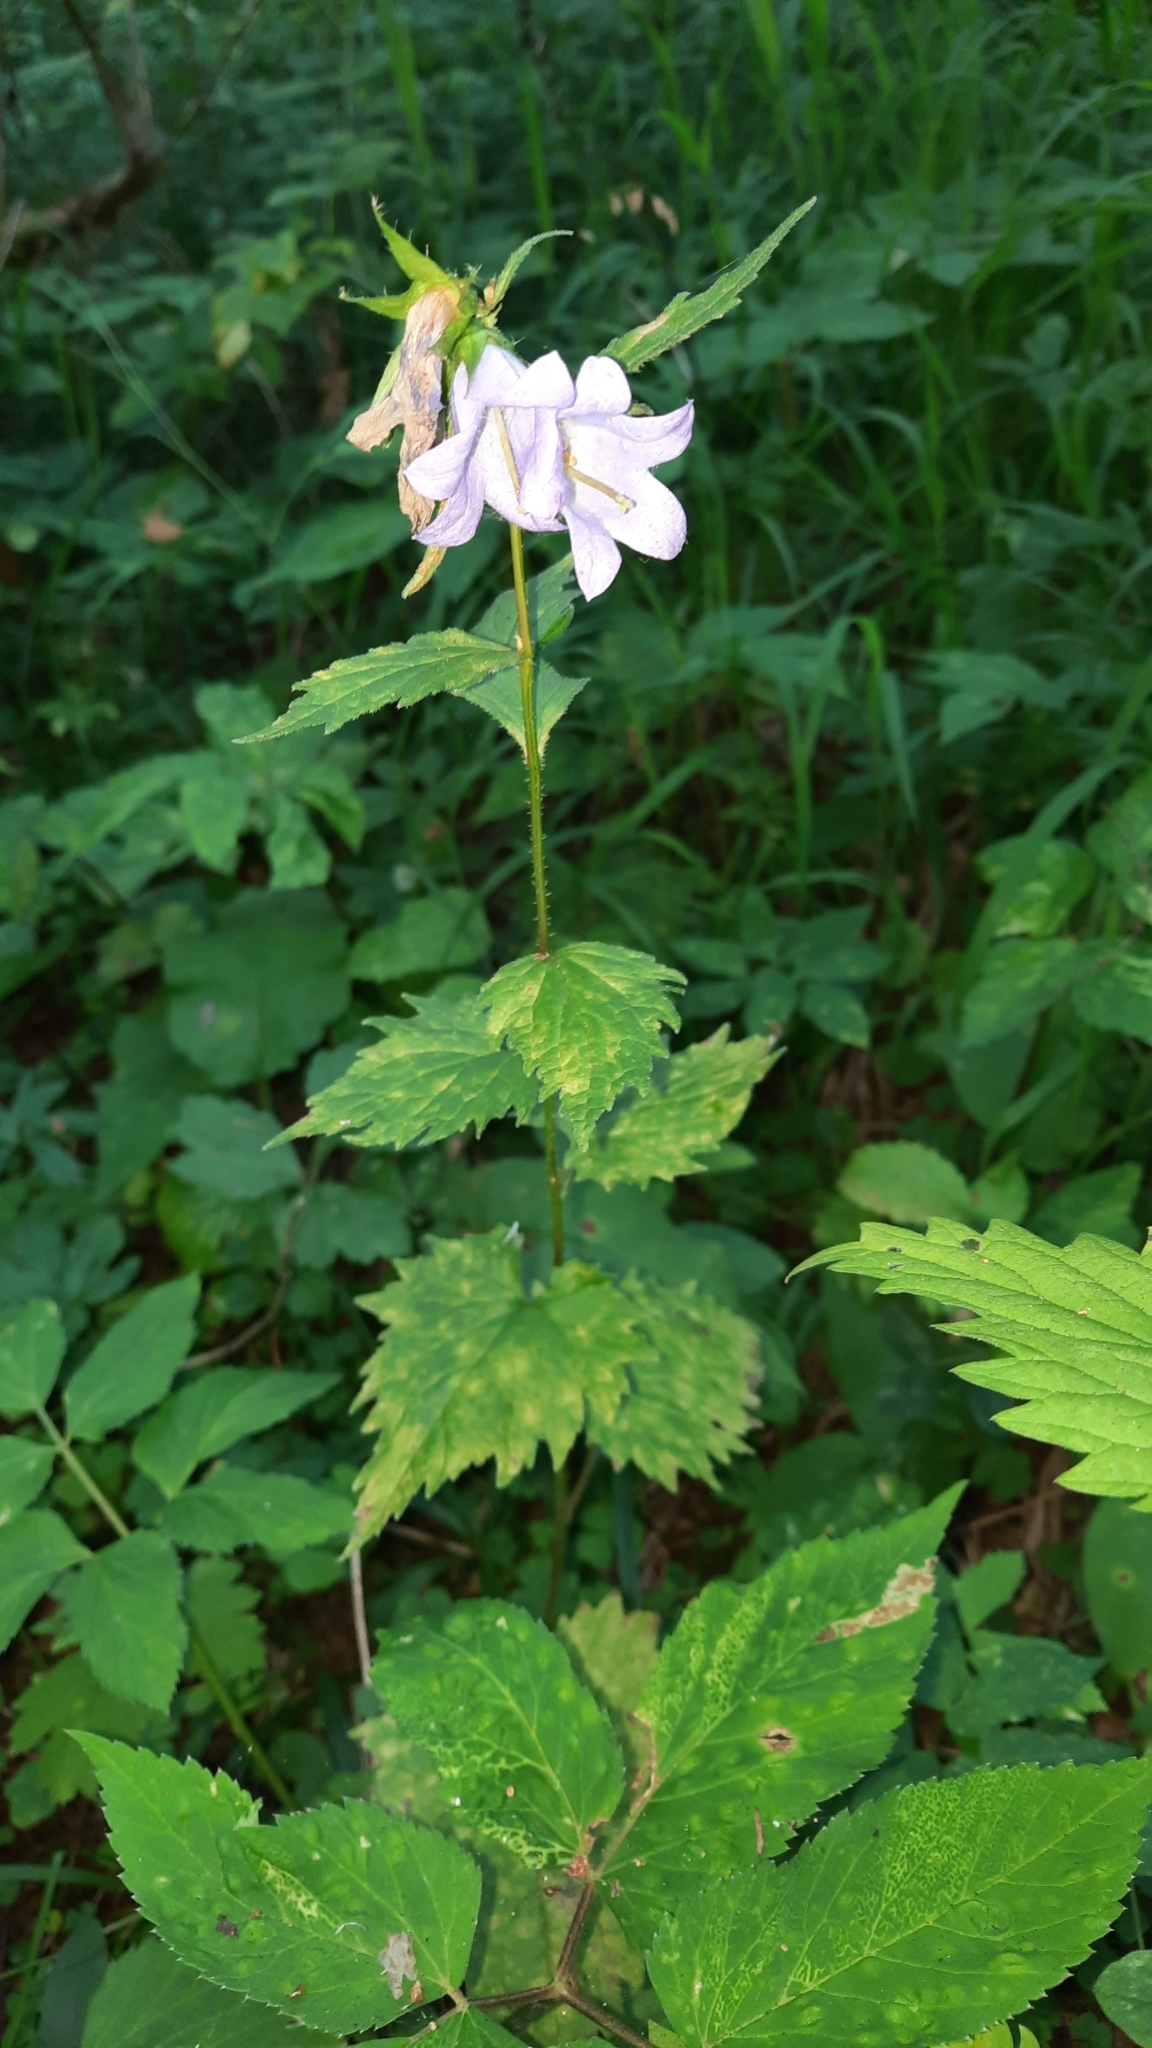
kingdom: Plantae
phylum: Tracheophyta
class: Magnoliopsida
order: Asterales
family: Campanulaceae
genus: Campanula
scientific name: Campanula trachelium
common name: Nettle-leaved bellflower
